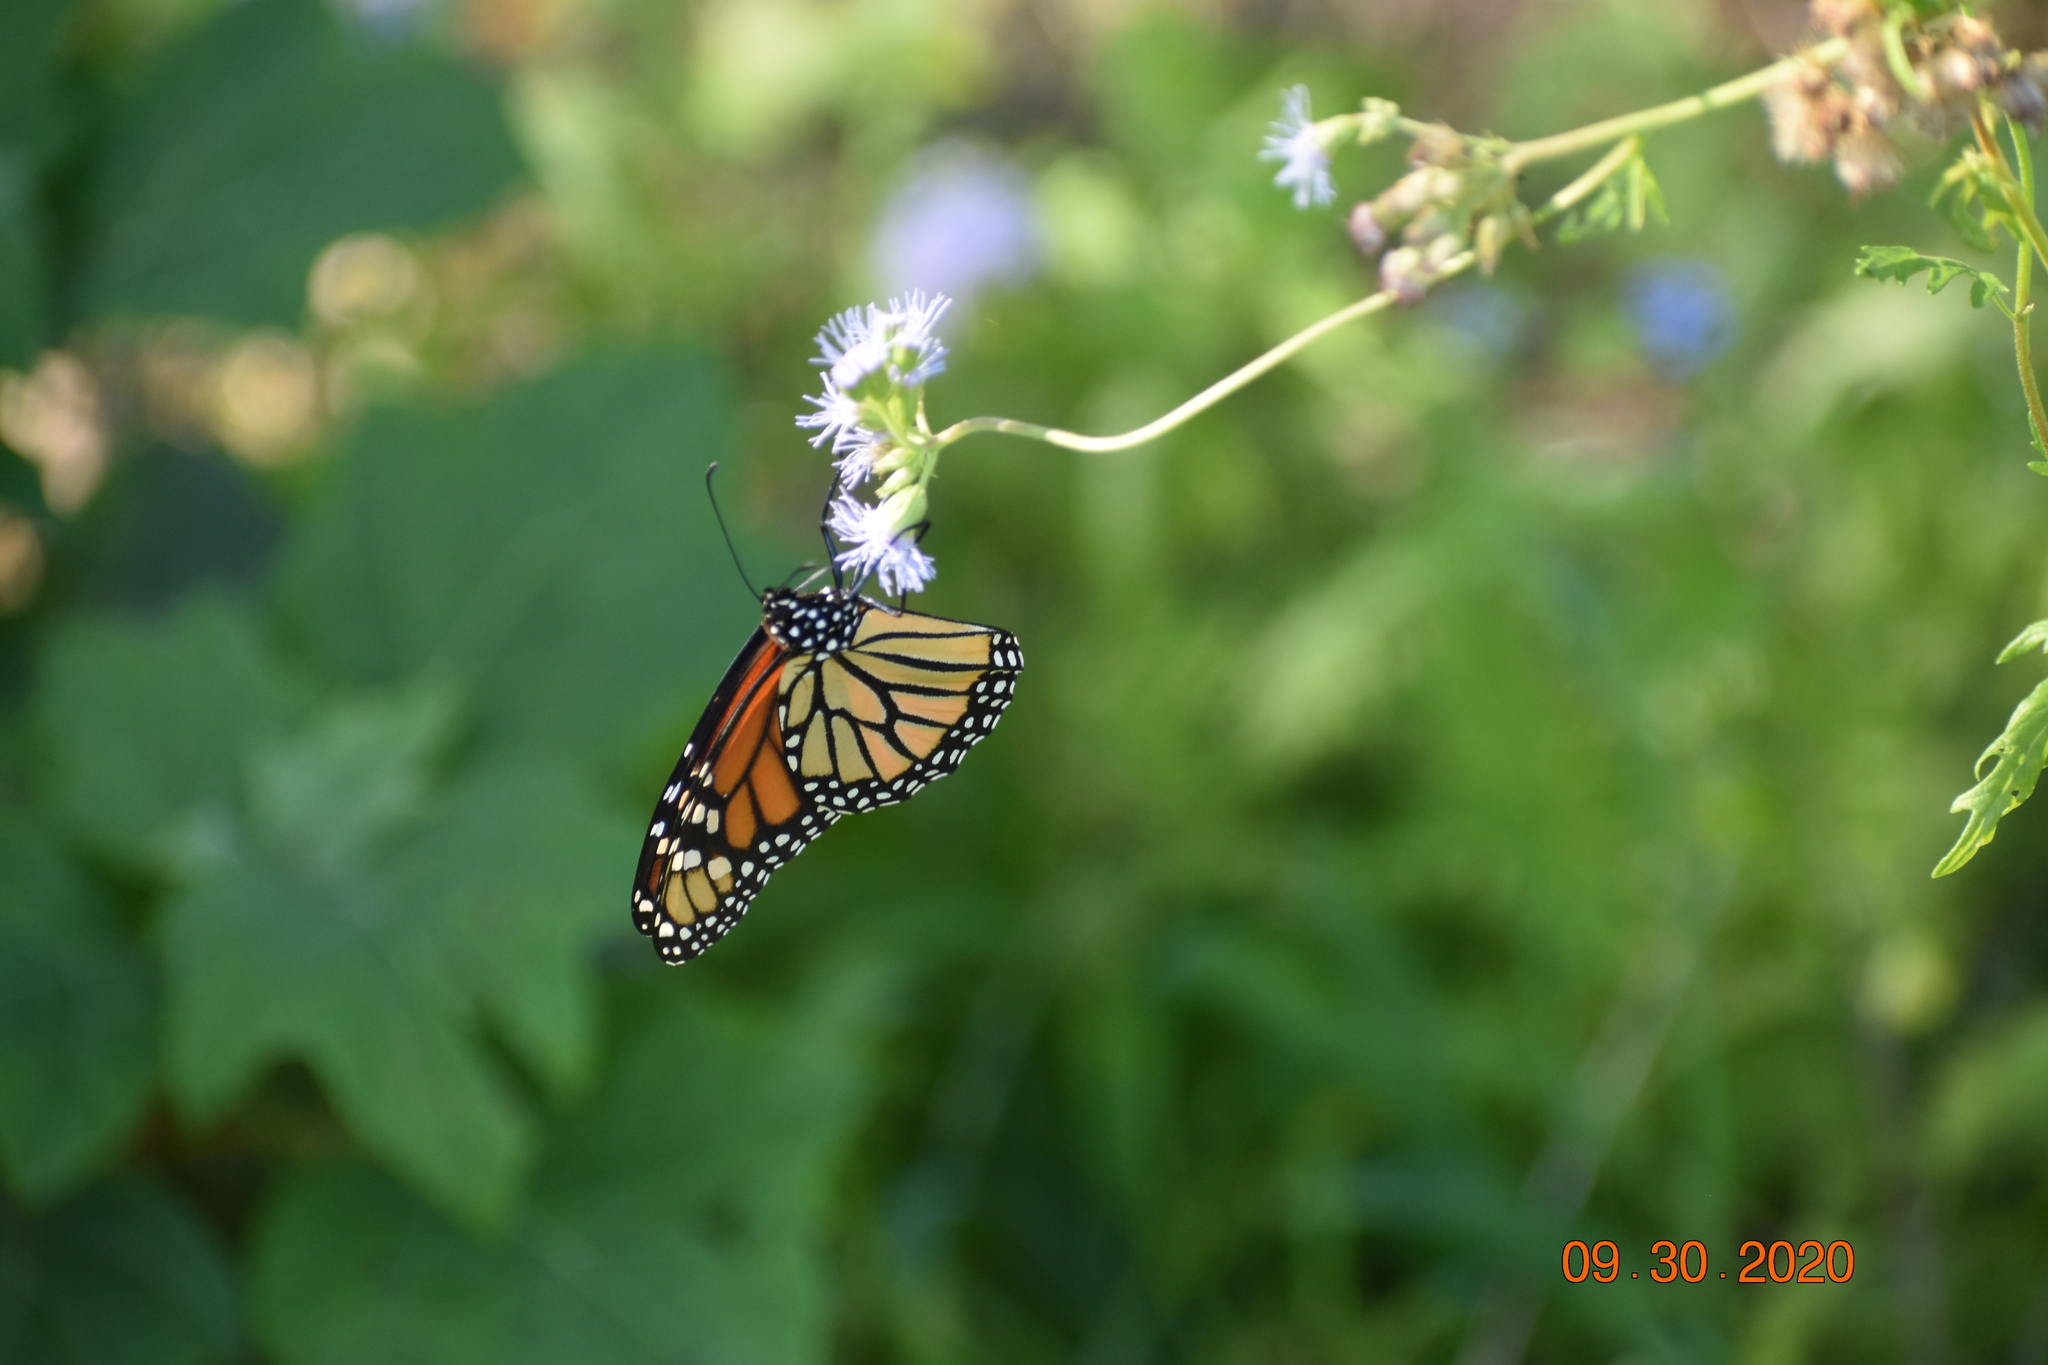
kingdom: Animalia
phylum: Arthropoda
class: Insecta
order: Lepidoptera
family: Nymphalidae
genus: Danaus
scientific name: Danaus plexippus
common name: Monarch
